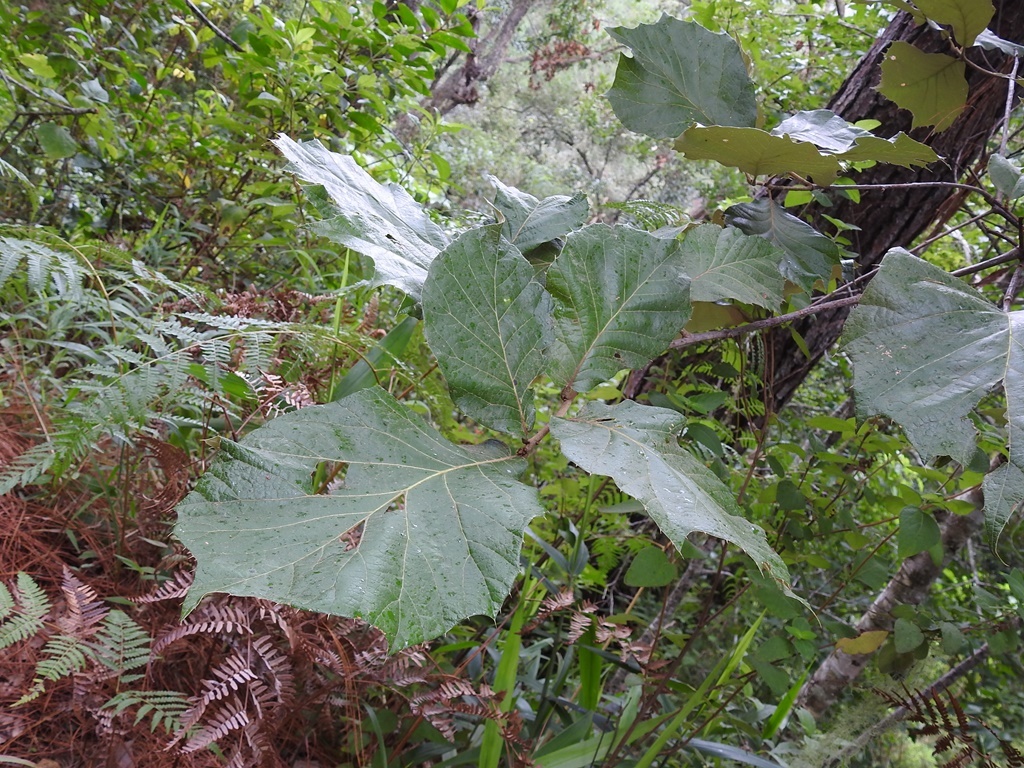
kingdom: Plantae
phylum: Tracheophyta
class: Magnoliopsida
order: Fagales
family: Fagaceae
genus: Quercus
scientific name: Quercus calophylla
